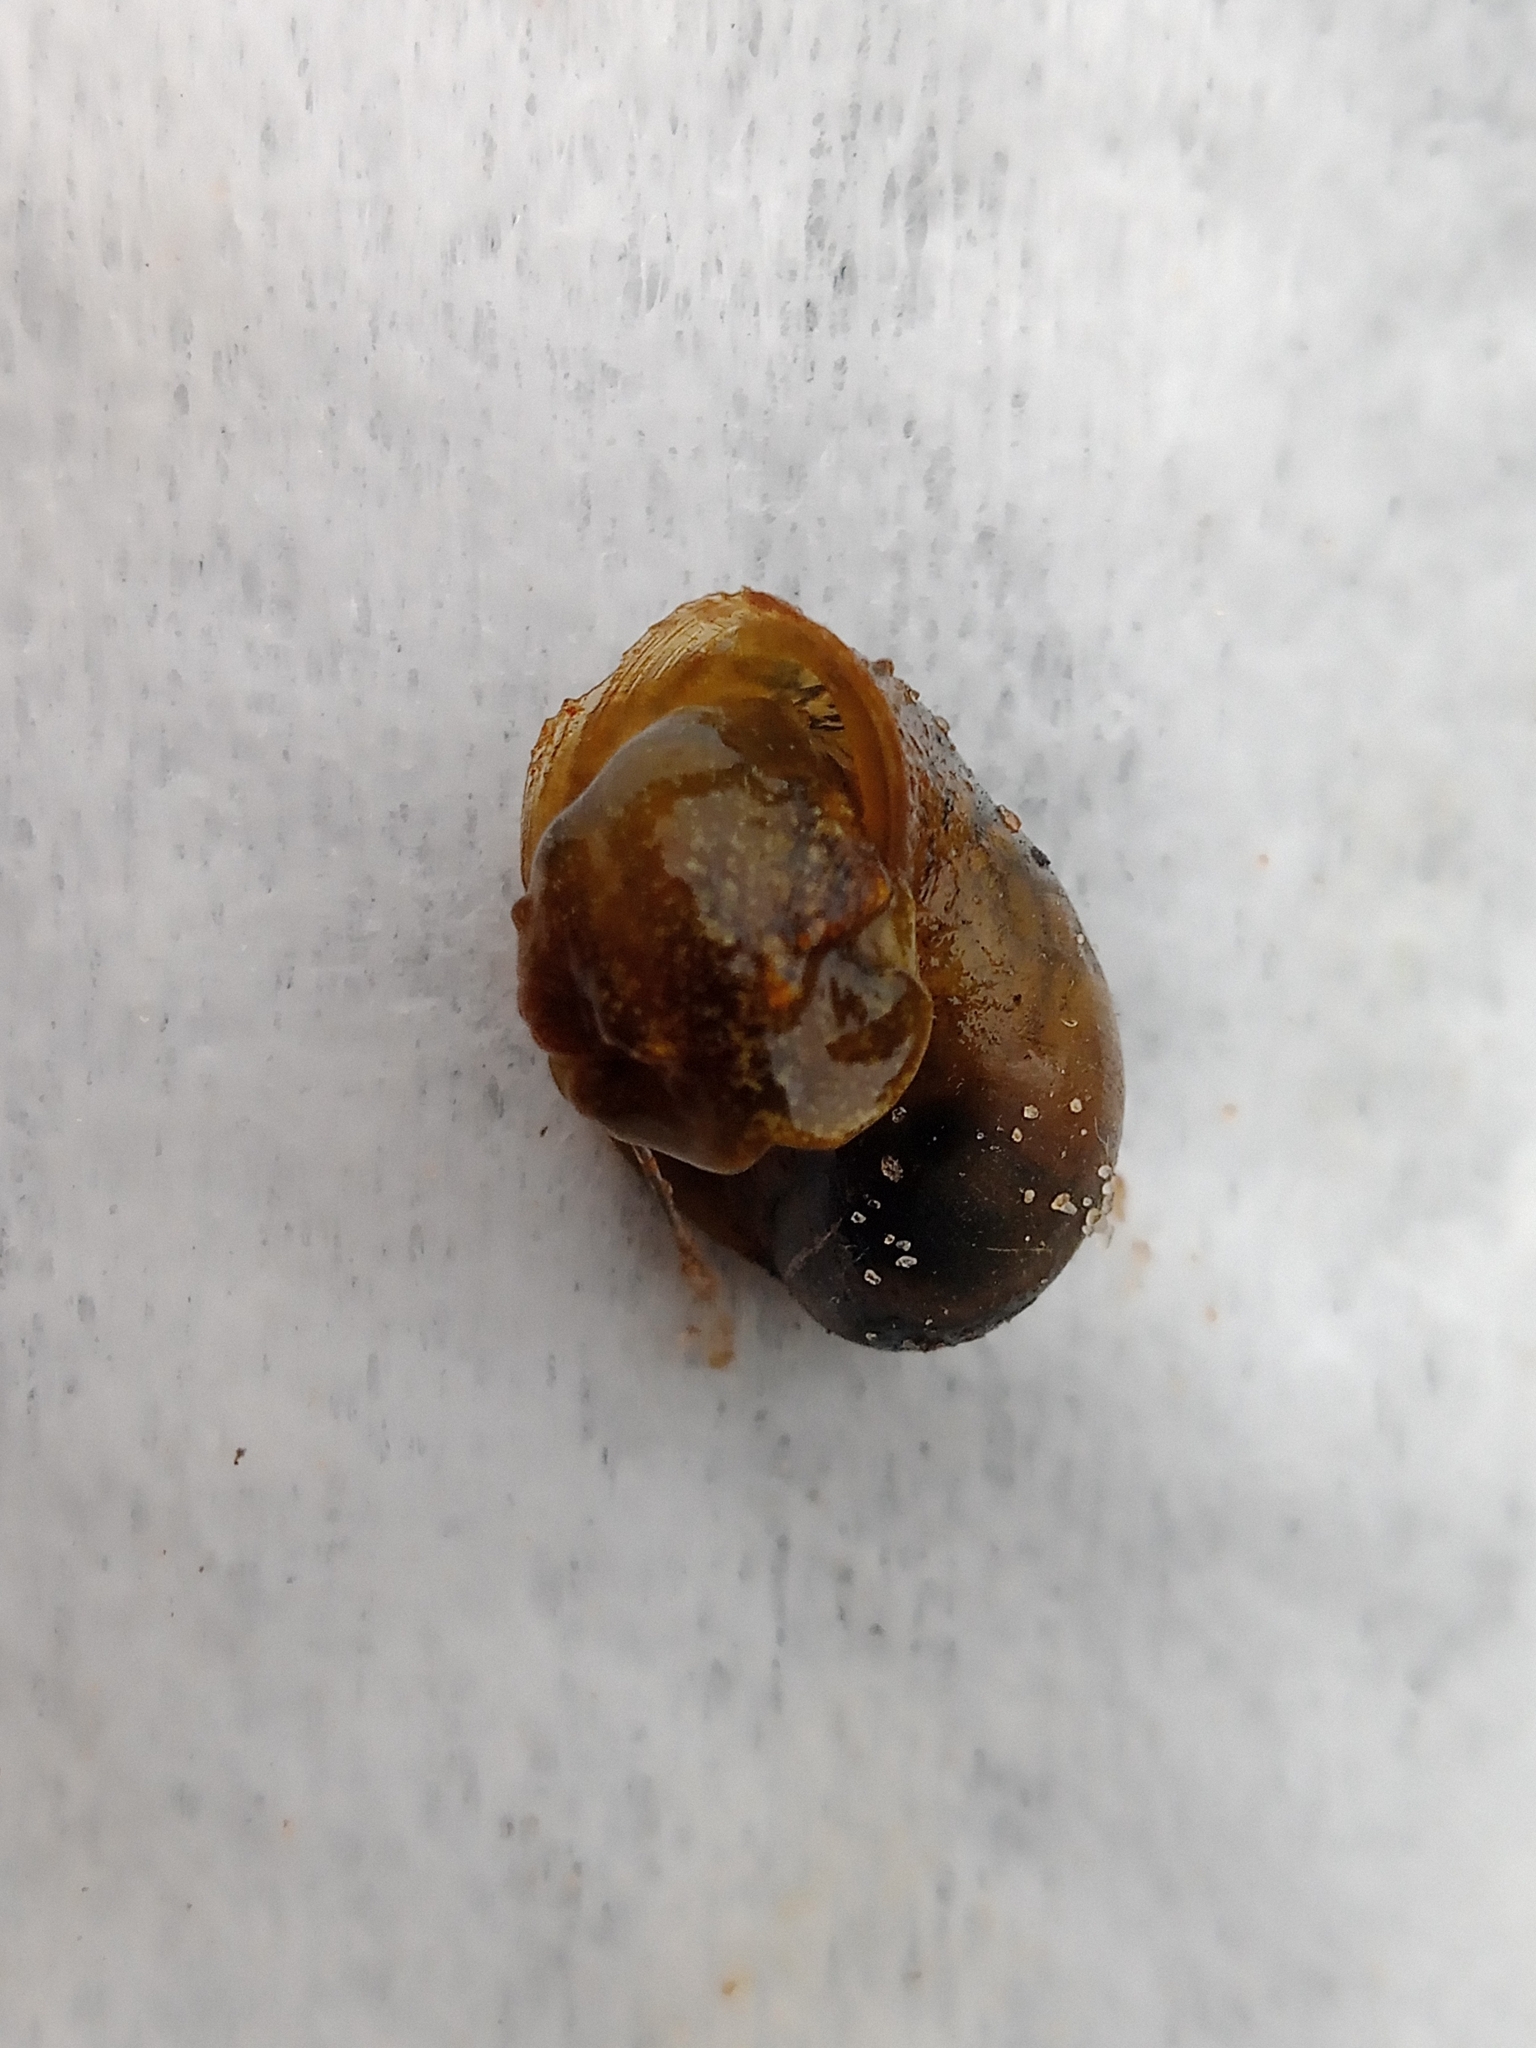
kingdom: Animalia
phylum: Mollusca
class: Gastropoda
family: Lymnaeidae
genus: Ampullaceana
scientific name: Ampullaceana balthica
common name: Wandering pond snail
